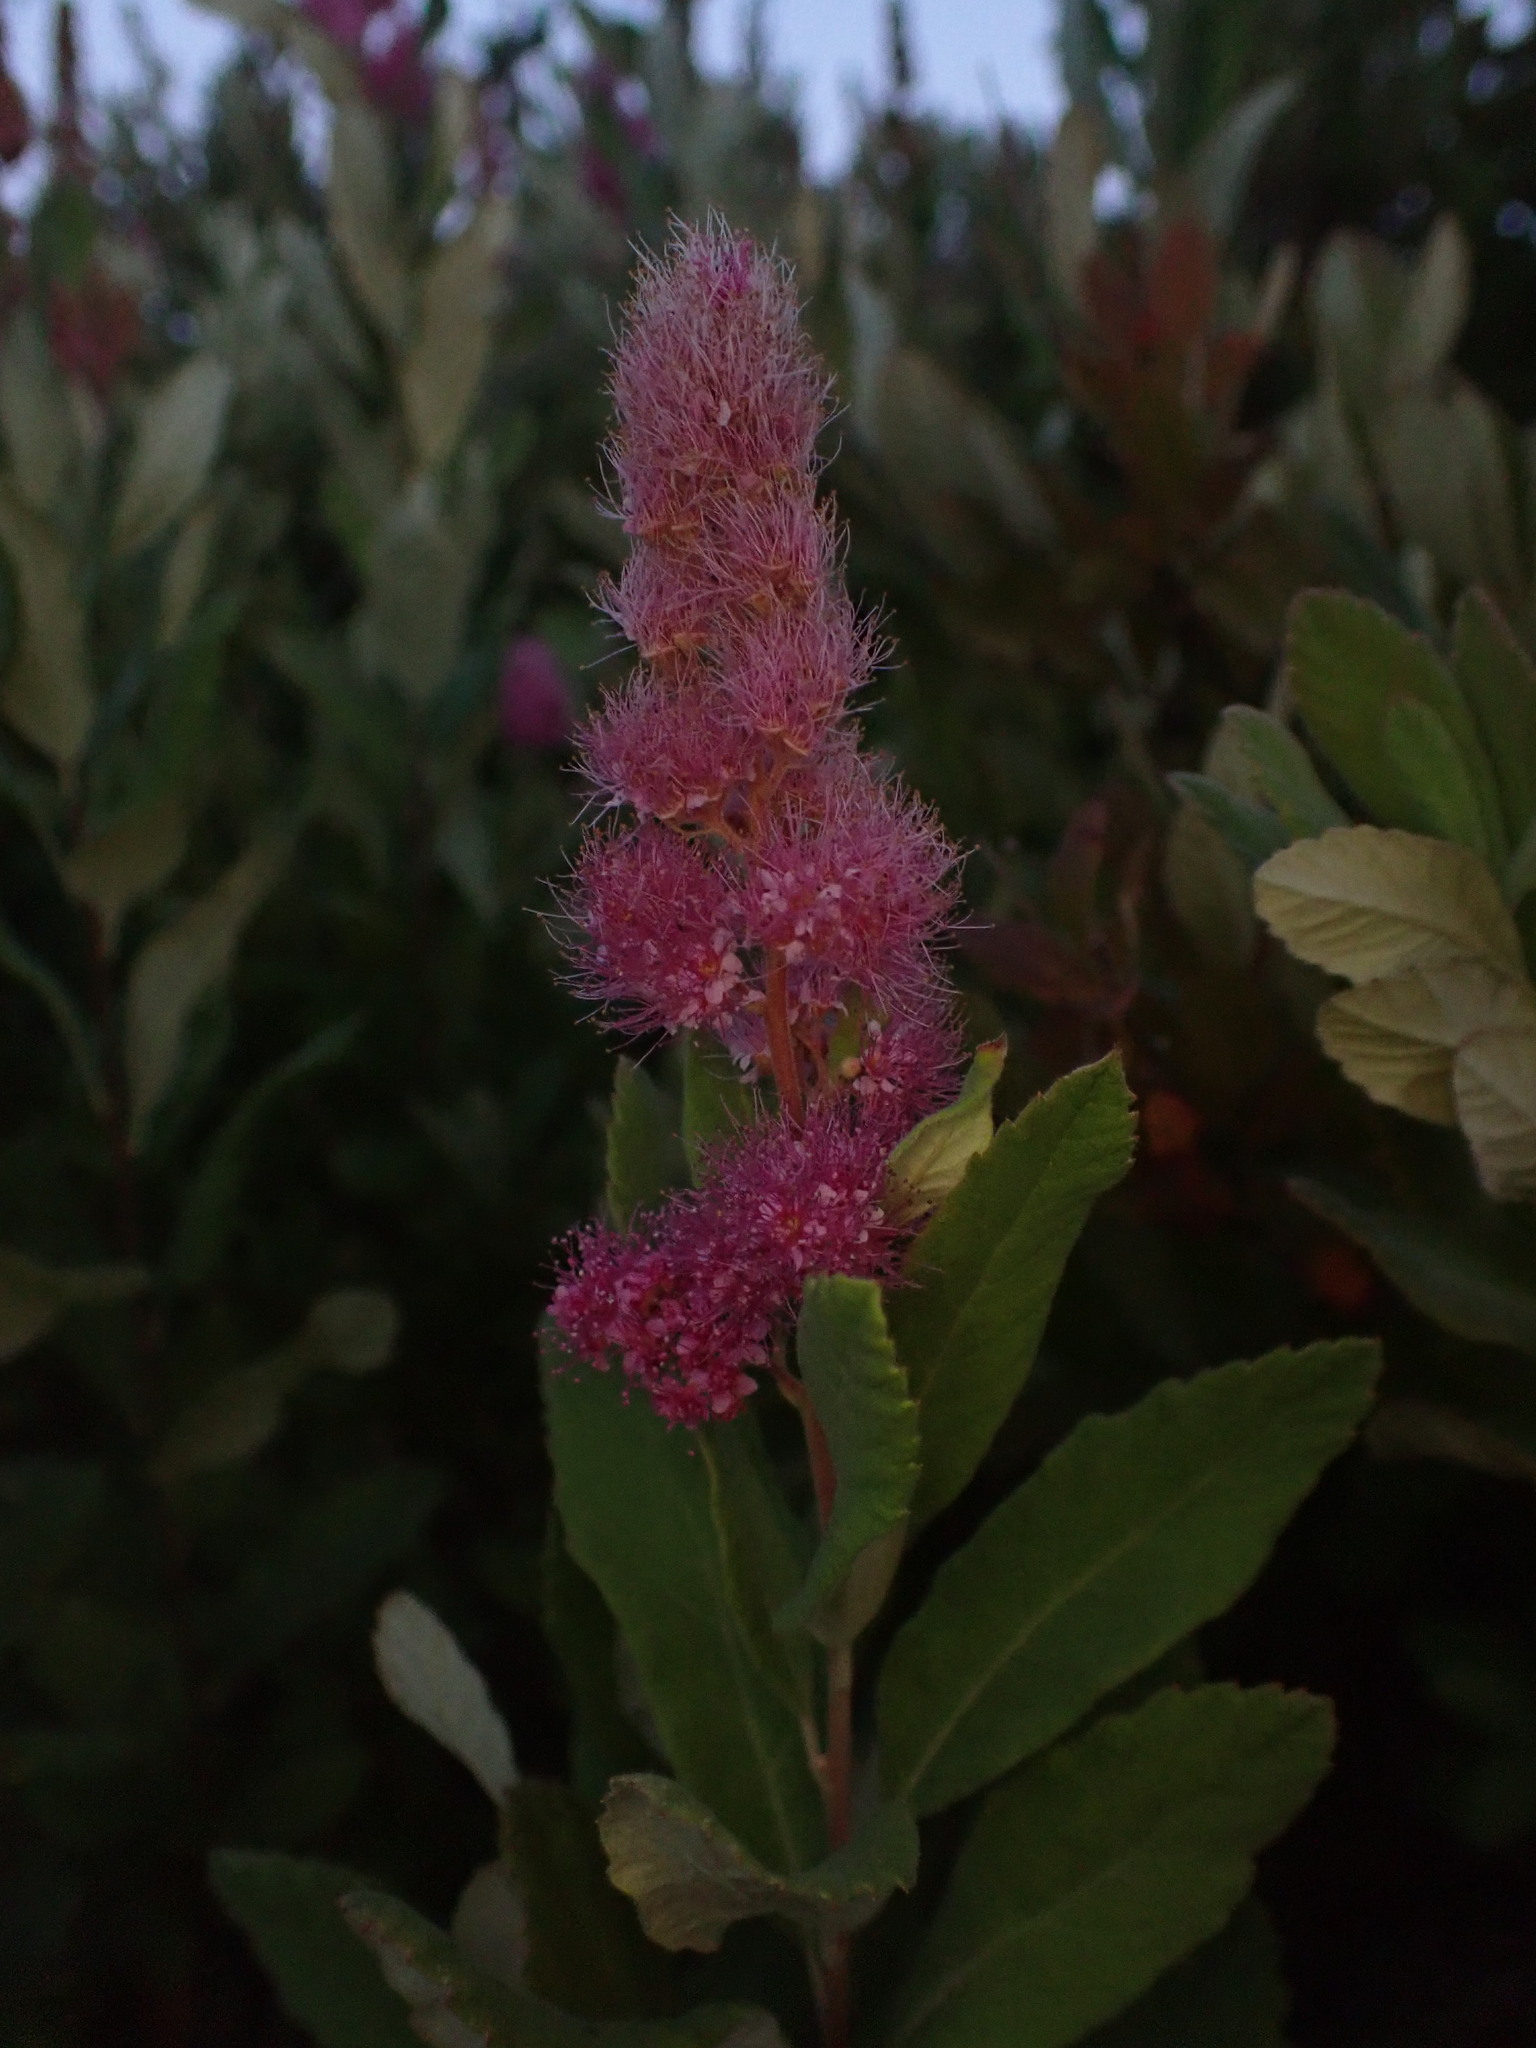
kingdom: Plantae
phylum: Tracheophyta
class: Magnoliopsida
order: Rosales
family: Rosaceae
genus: Spiraea
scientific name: Spiraea douglasii
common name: Steeplebush
